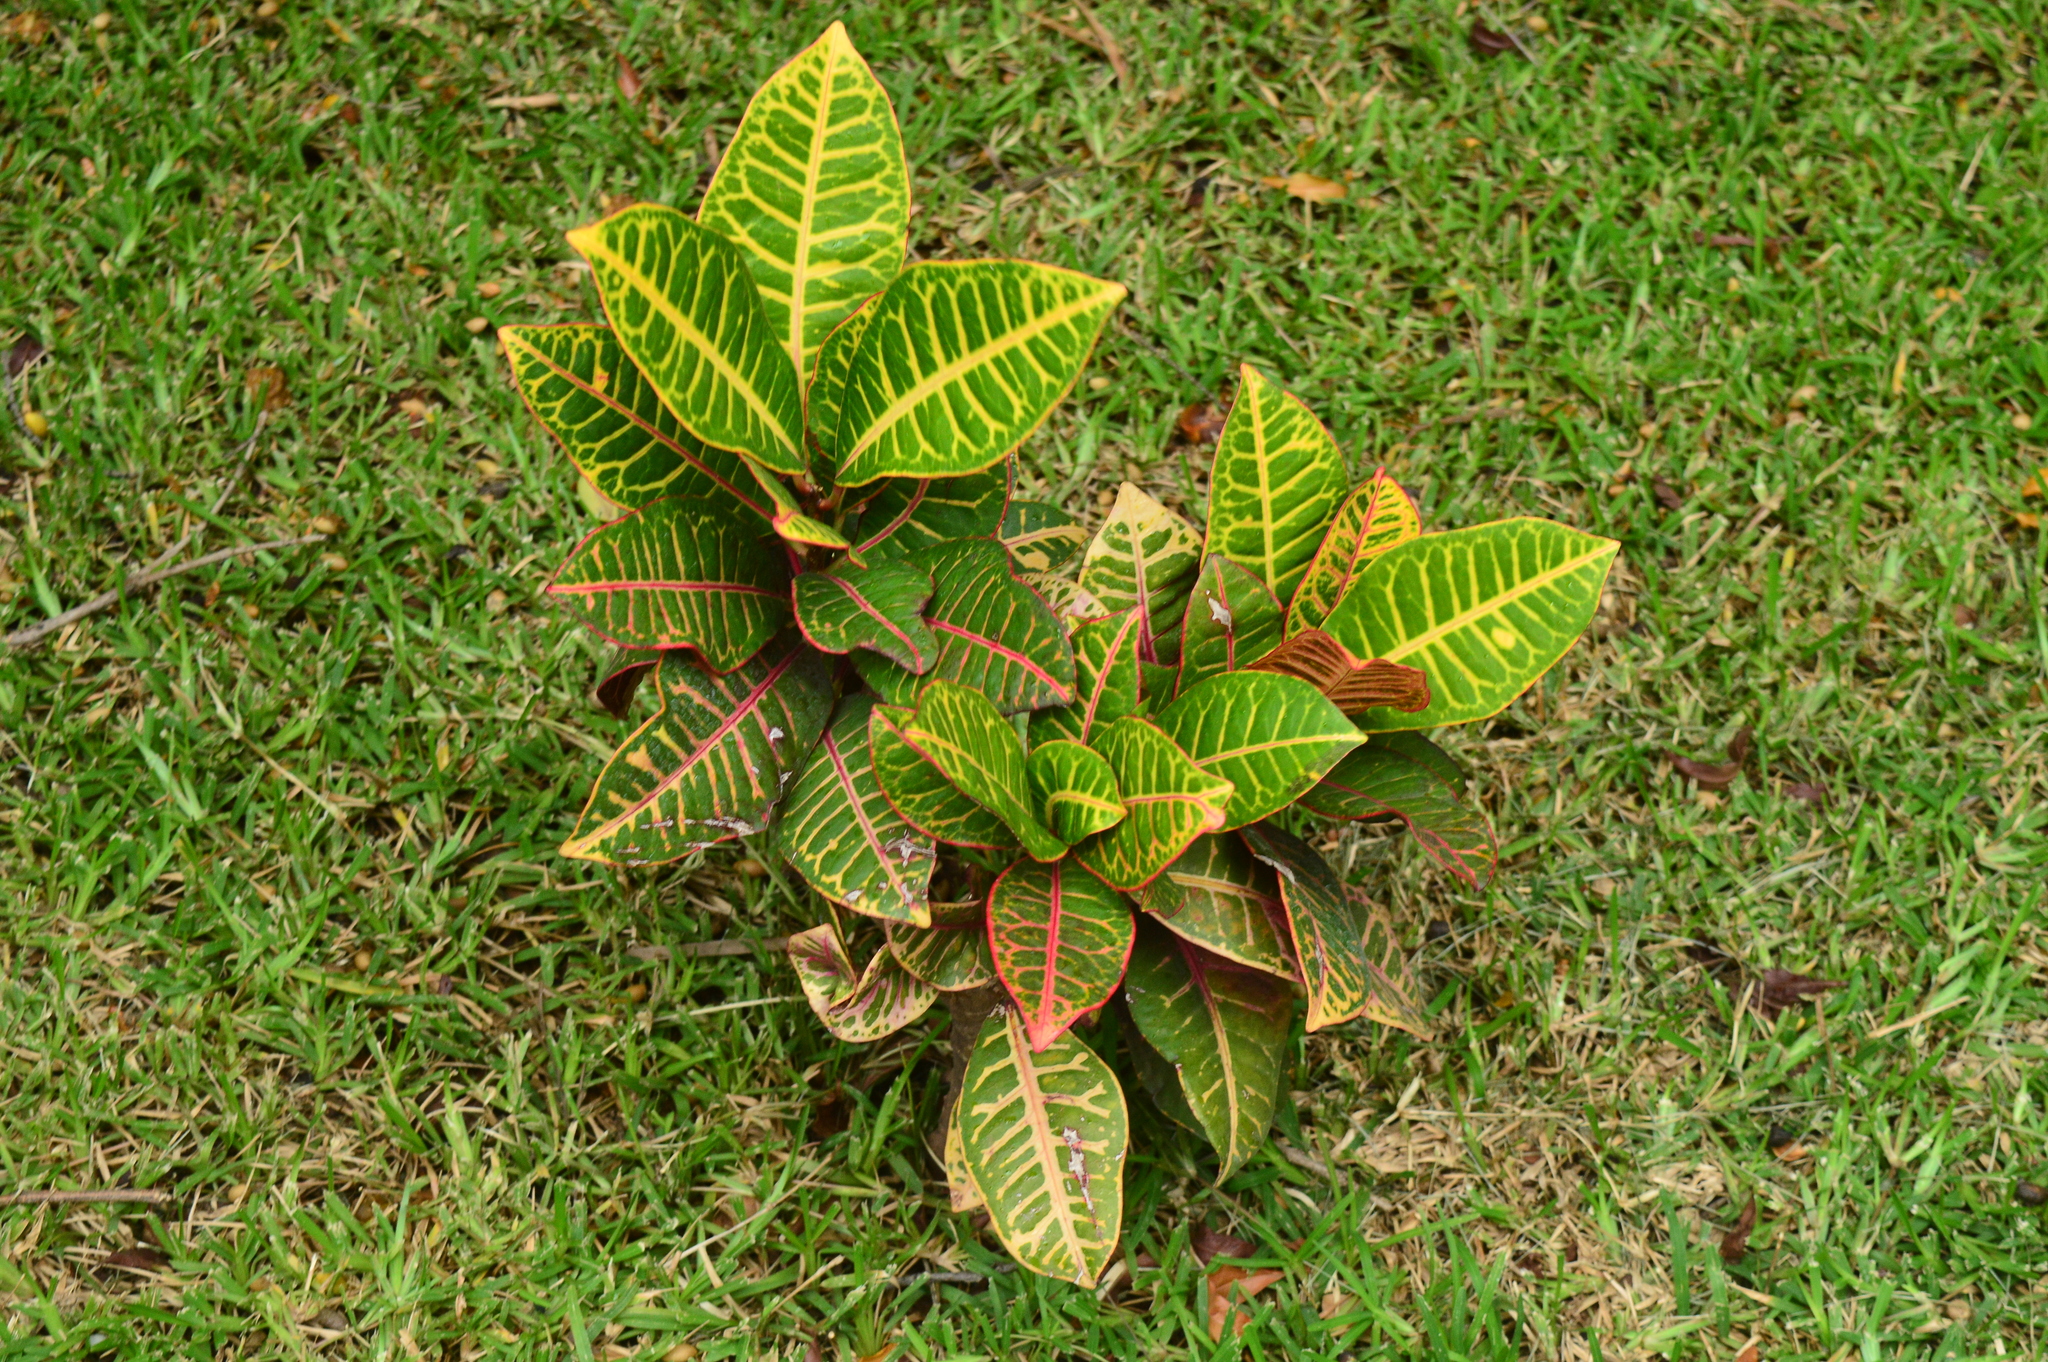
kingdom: Plantae
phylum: Tracheophyta
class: Magnoliopsida
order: Malpighiales
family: Euphorbiaceae
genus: Codiaeum
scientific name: Codiaeum variegatum
